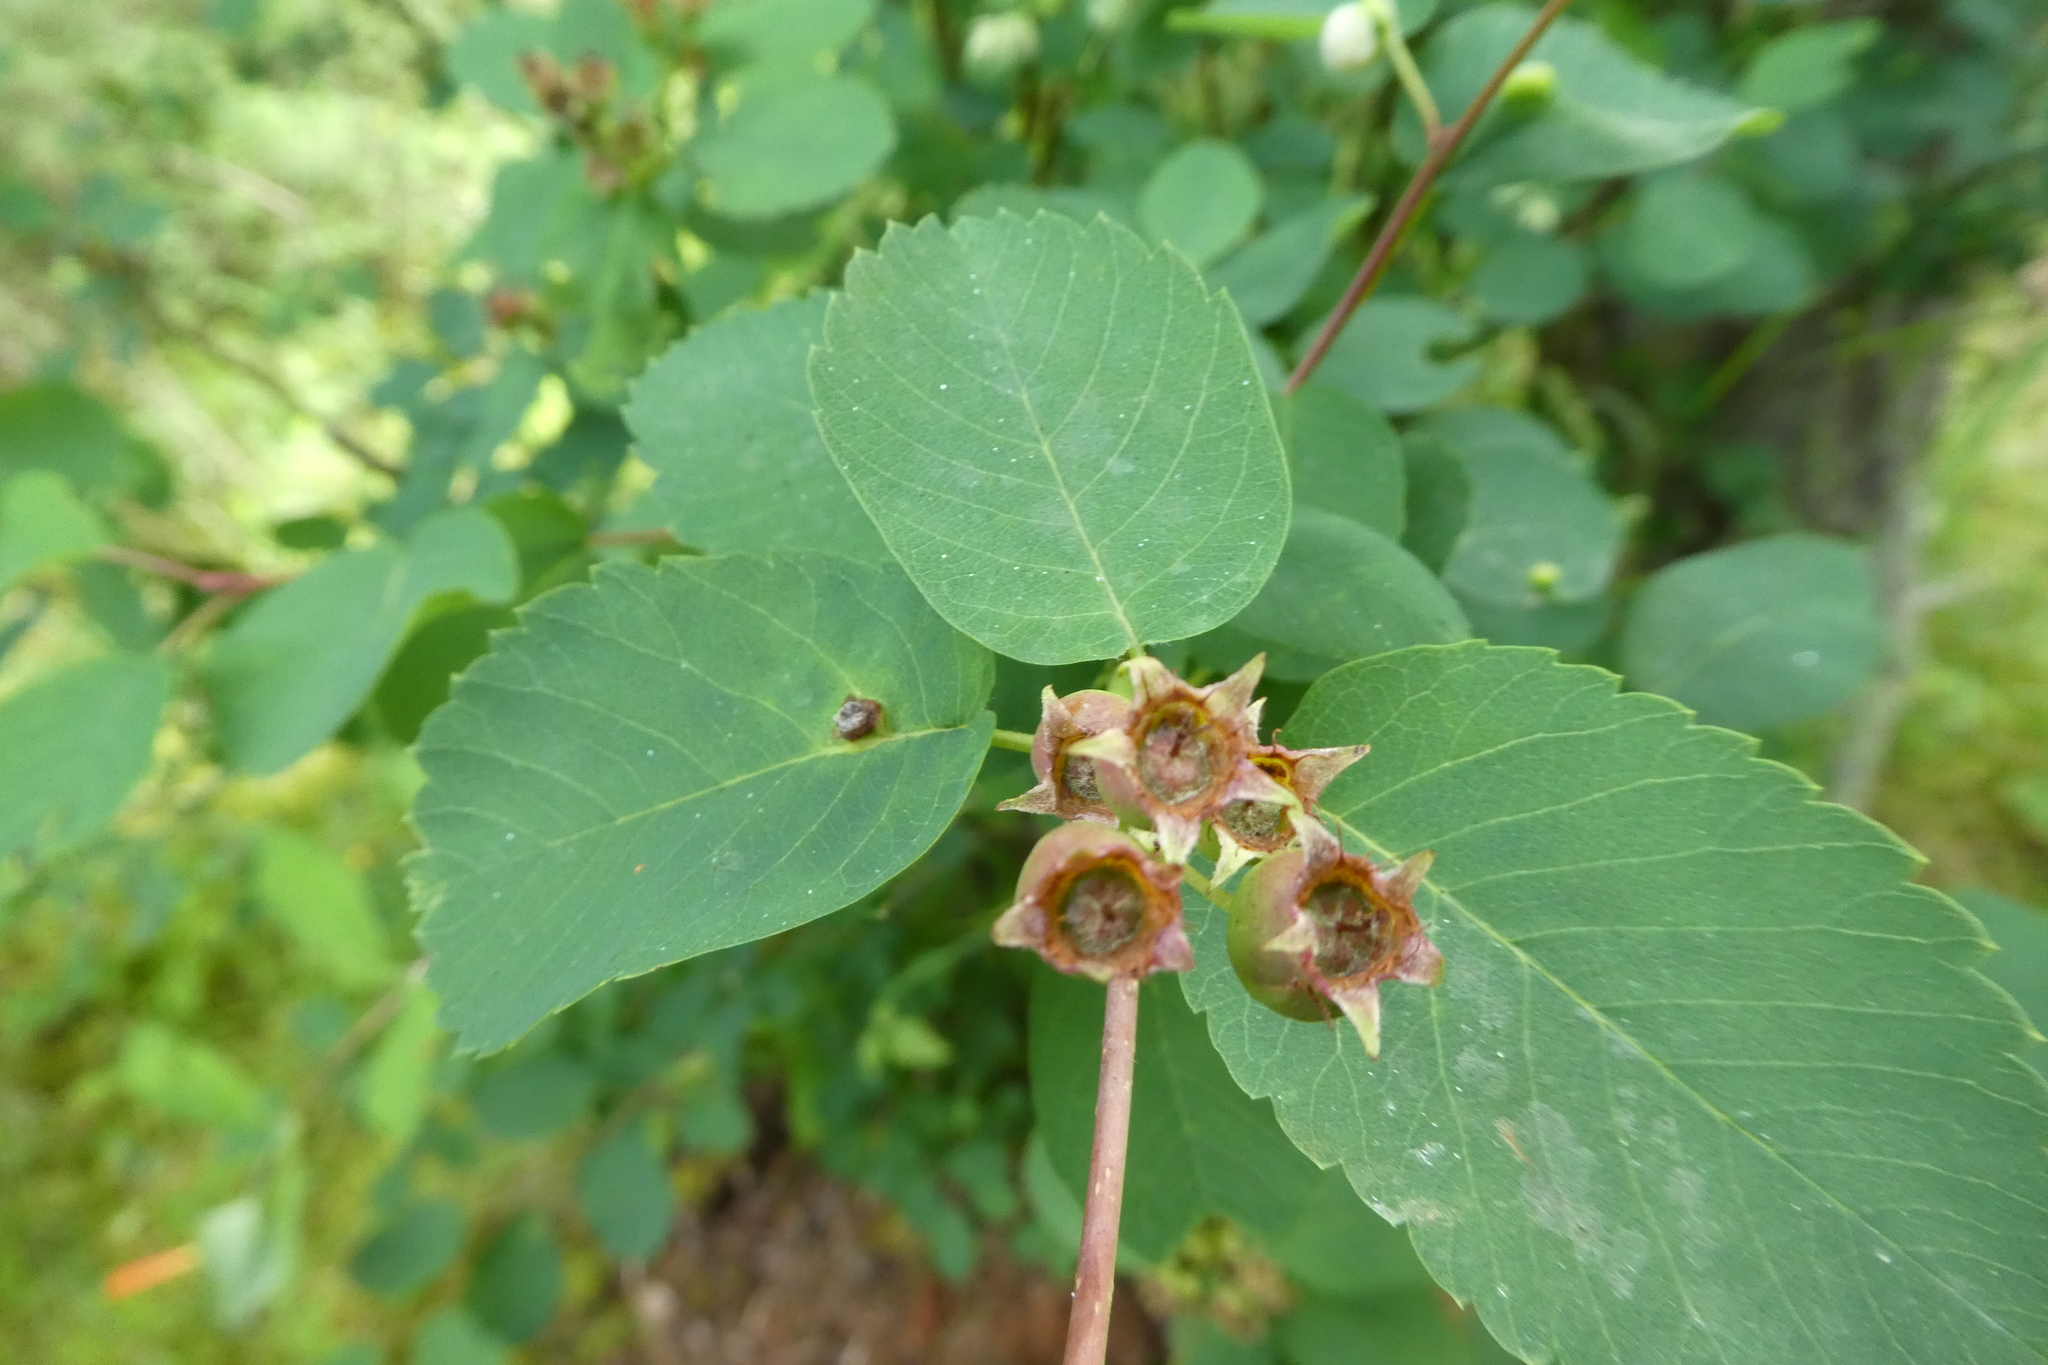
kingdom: Plantae
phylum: Tracheophyta
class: Magnoliopsida
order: Rosales
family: Rosaceae
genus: Amelanchier
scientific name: Amelanchier alnifolia
